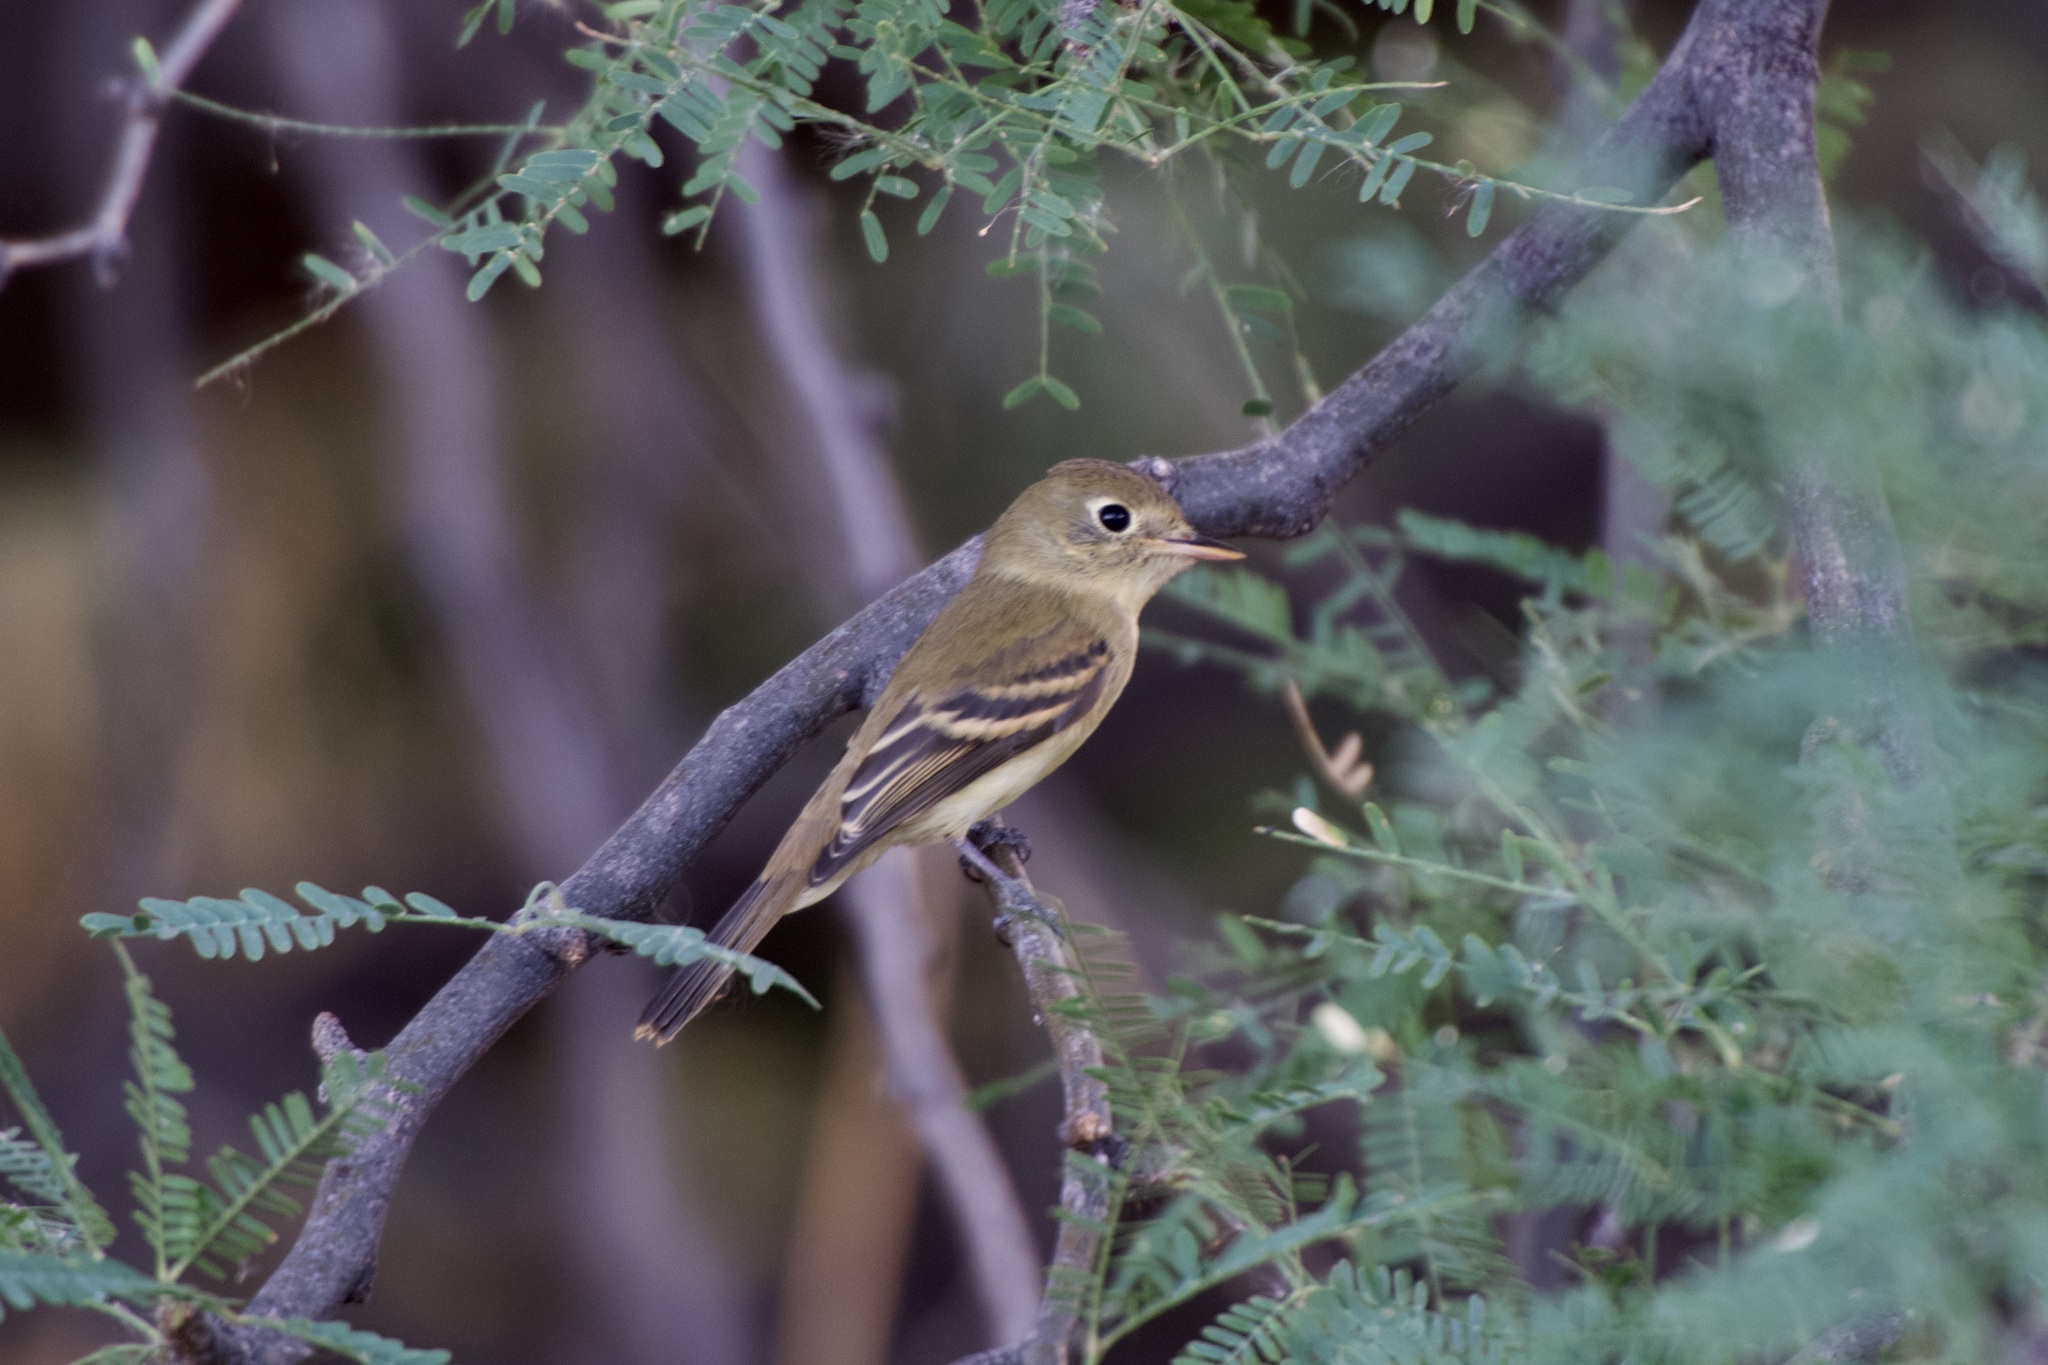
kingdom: Animalia
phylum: Chordata
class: Aves
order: Passeriformes
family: Tyrannidae
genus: Empidonax
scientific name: Empidonax
